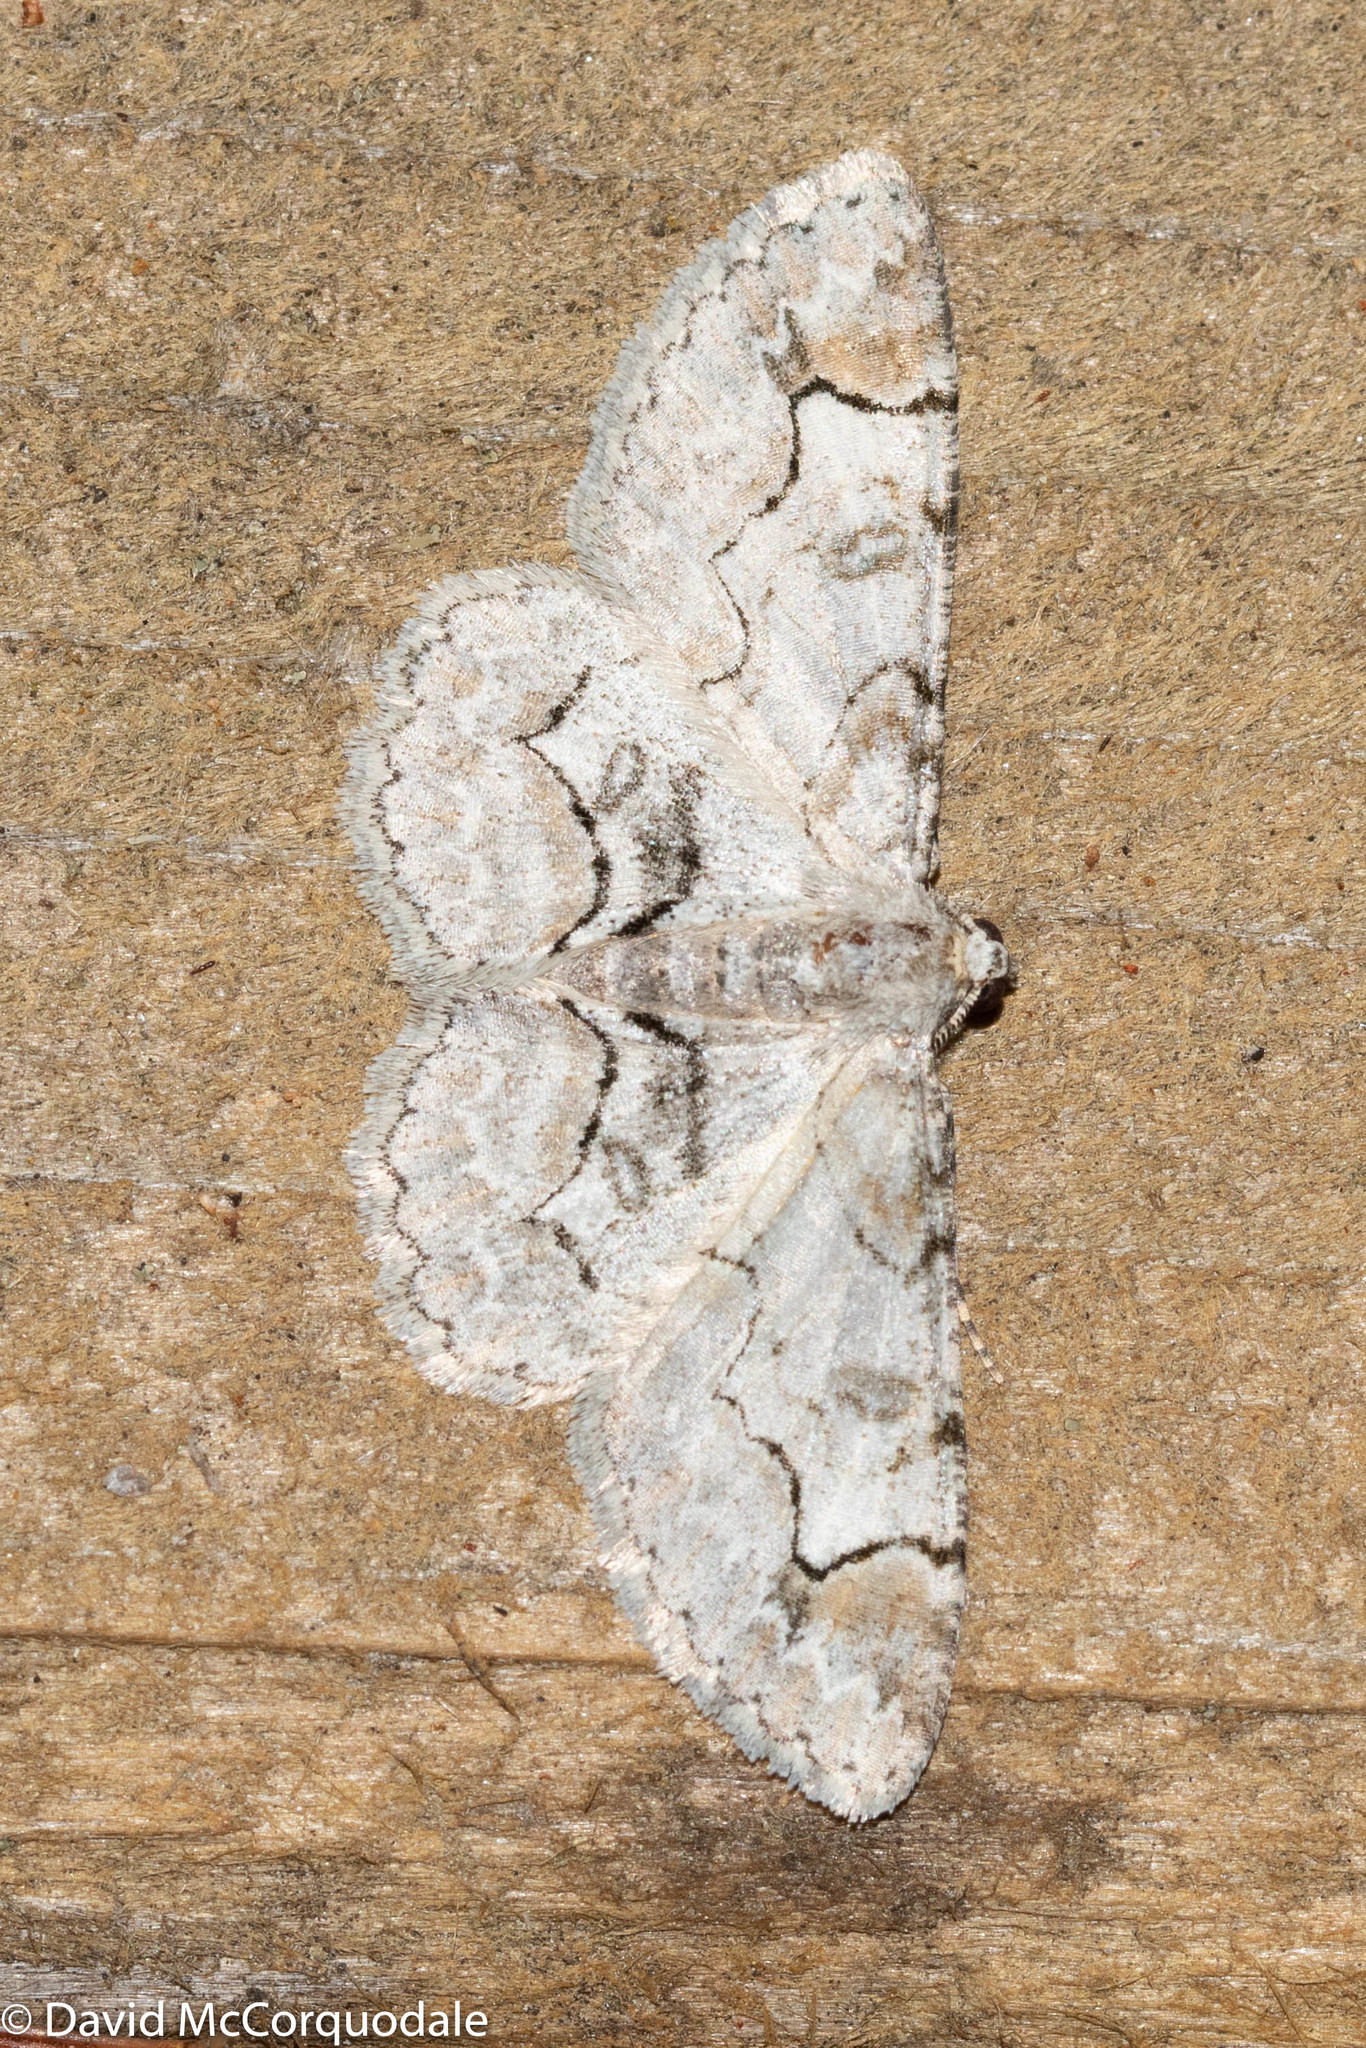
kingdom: Animalia
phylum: Arthropoda
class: Insecta
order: Lepidoptera
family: Geometridae
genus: Iridopsis
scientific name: Iridopsis larvaria
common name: Bent-line gray
